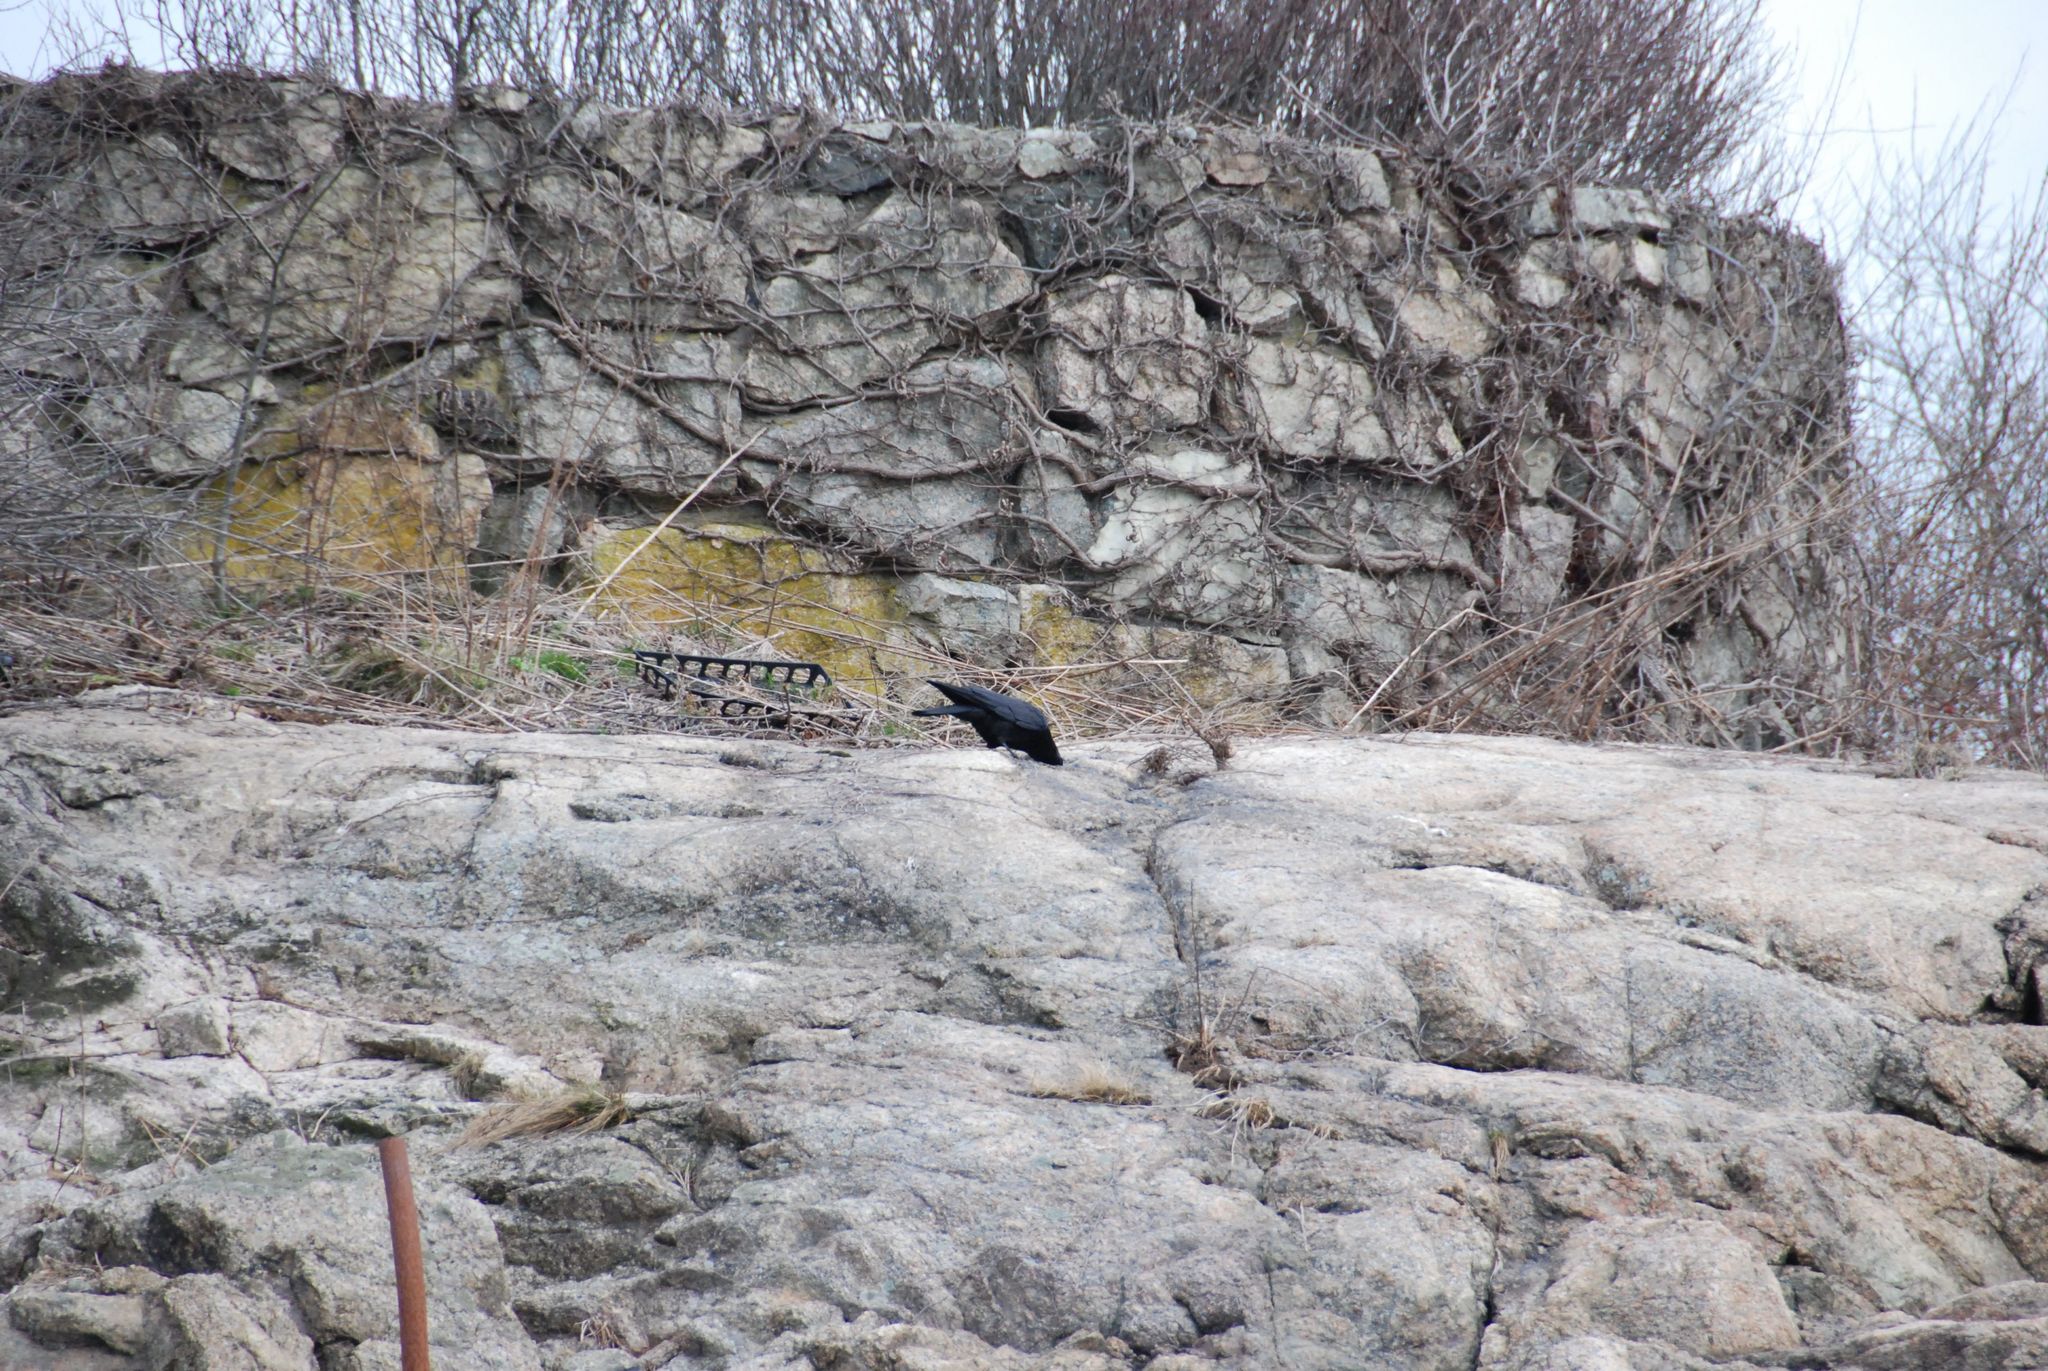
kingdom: Animalia
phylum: Chordata
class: Aves
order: Passeriformes
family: Corvidae
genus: Corvus
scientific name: Corvus brachyrhynchos
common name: American crow
